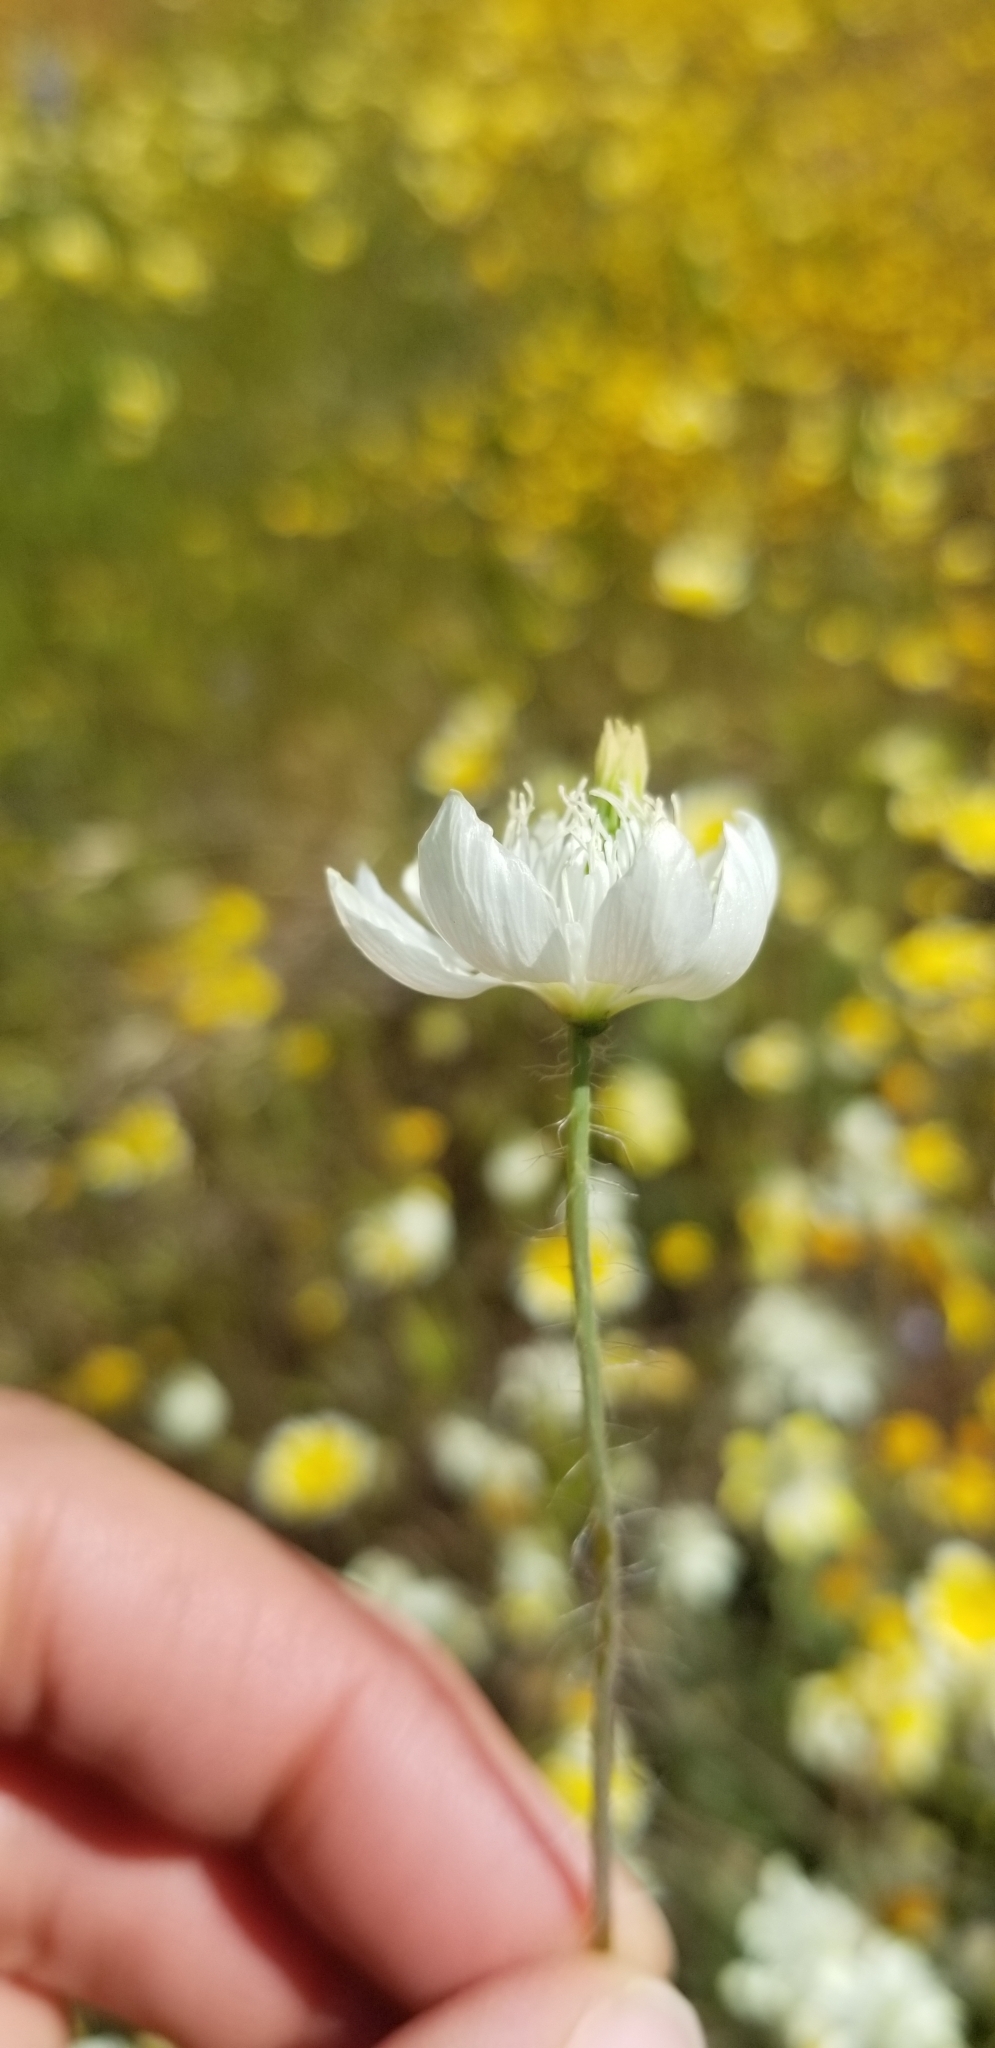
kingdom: Plantae
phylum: Tracheophyta
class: Magnoliopsida
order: Ranunculales
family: Papaveraceae
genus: Platystemon
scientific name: Platystemon californicus
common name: Cream-cups
